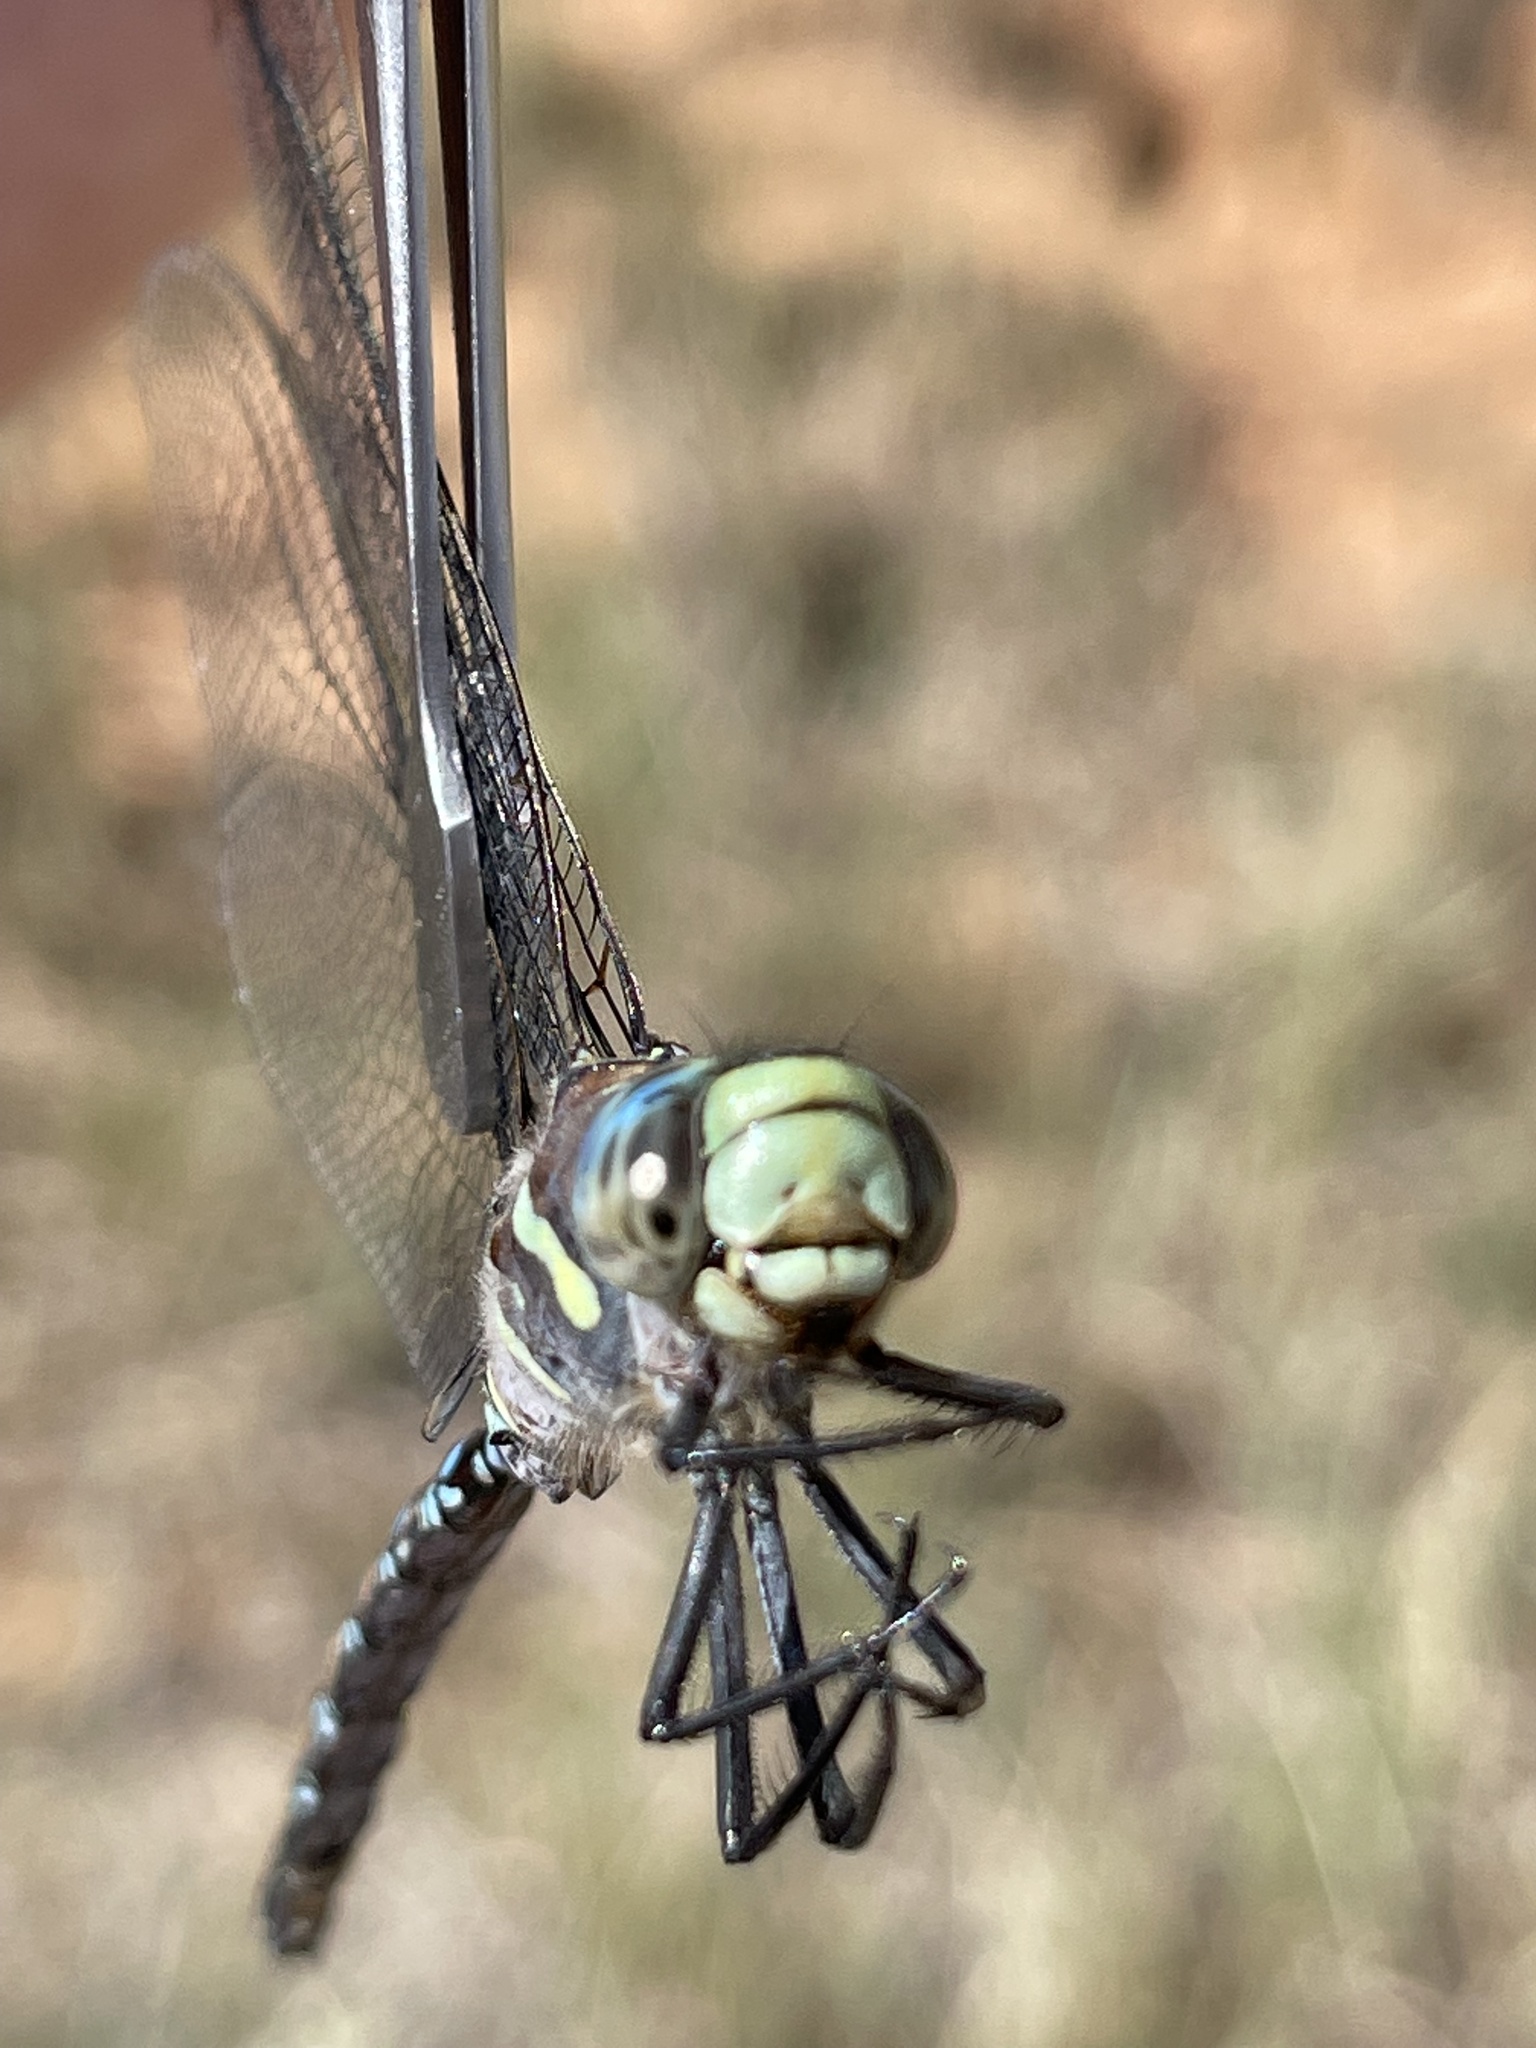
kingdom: Animalia
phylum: Arthropoda
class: Insecta
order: Odonata
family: Aeshnidae
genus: Aeshna
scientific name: Aeshna palmata
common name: Paddle-tailed darner
